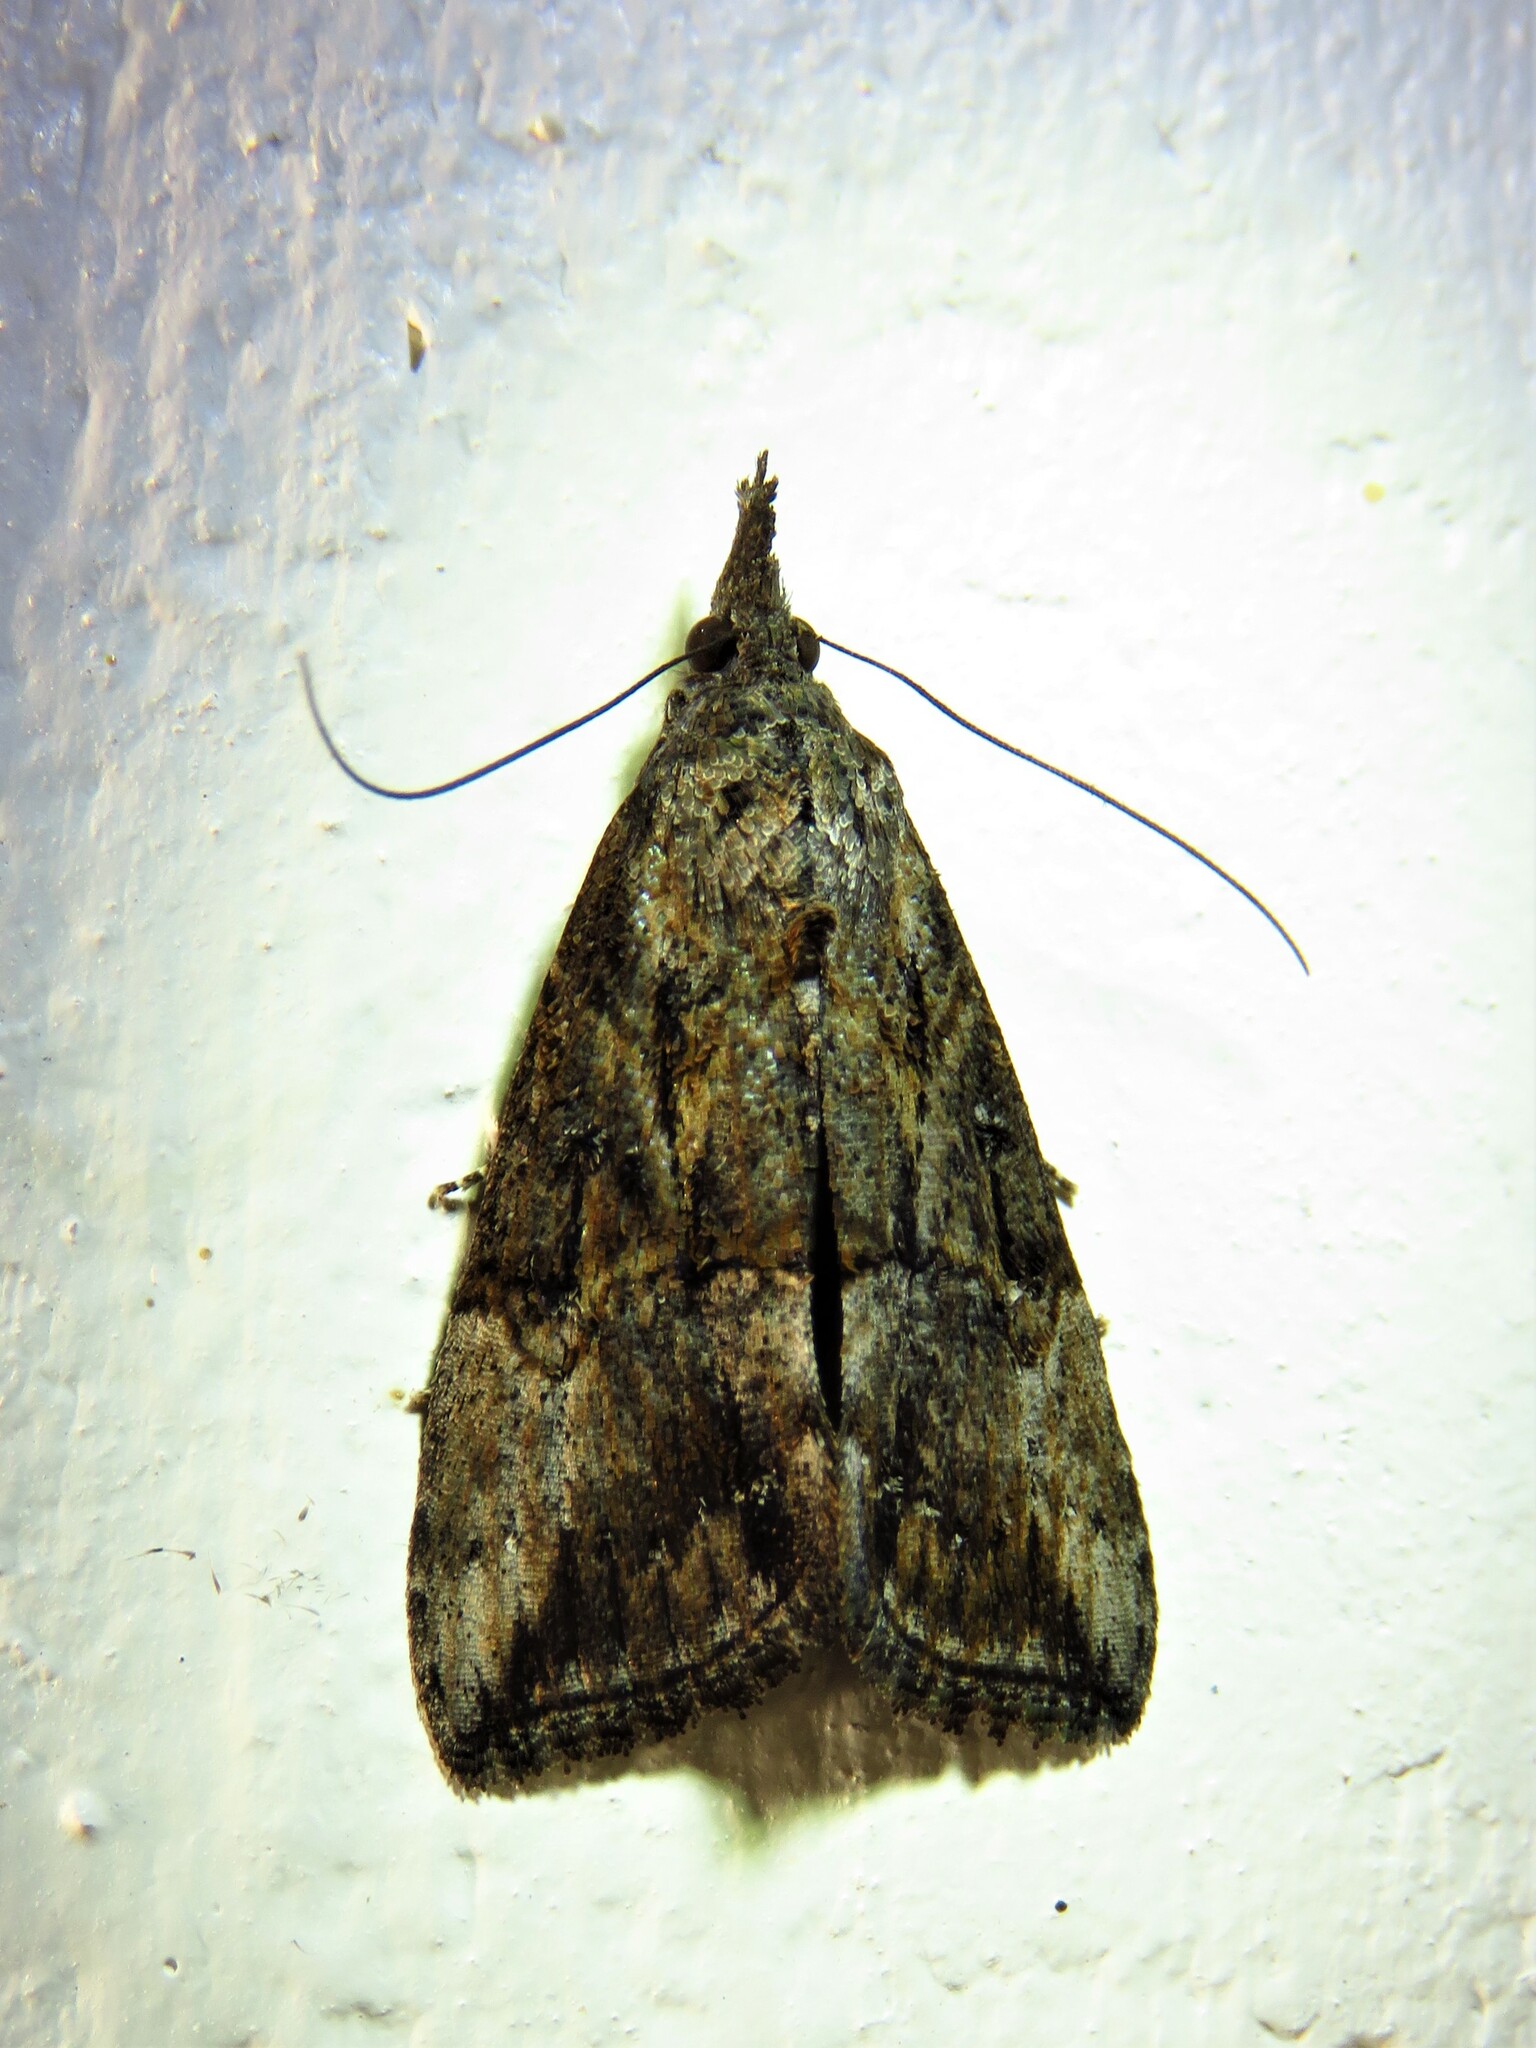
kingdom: Animalia
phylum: Arthropoda
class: Insecta
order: Lepidoptera
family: Erebidae
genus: Hypena
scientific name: Hypena scabra
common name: Green cloverworm
